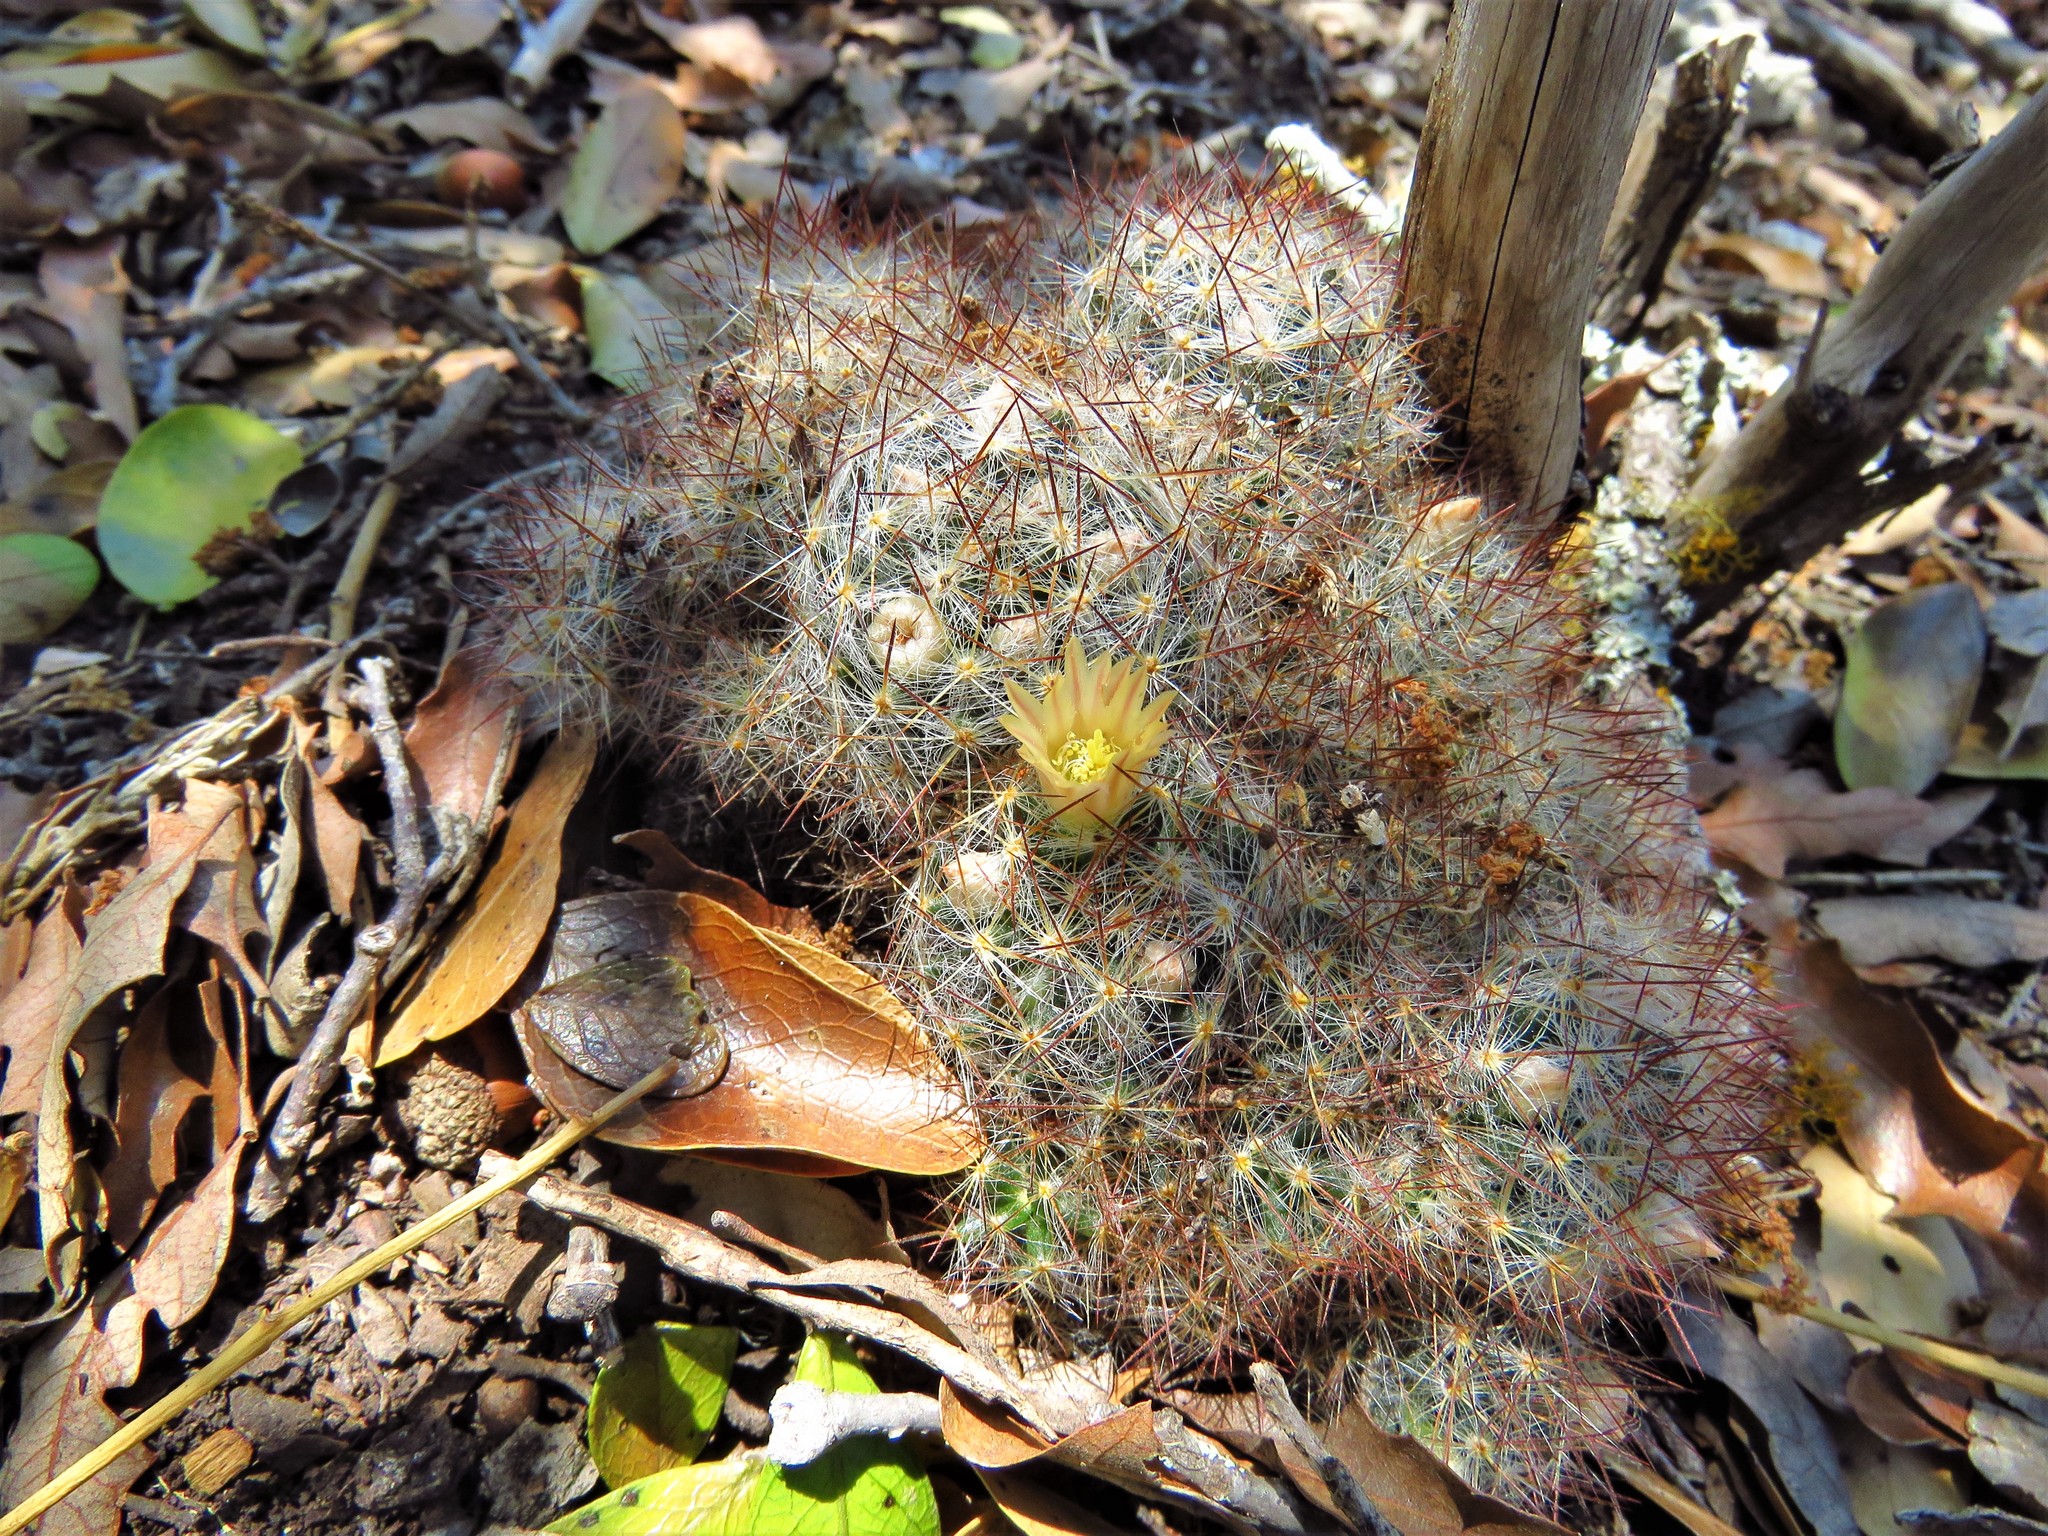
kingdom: Plantae
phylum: Tracheophyta
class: Magnoliopsida
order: Caryophyllales
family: Cactaceae
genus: Mammillaria
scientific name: Mammillaria prolifera
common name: Texas nipple cactus
